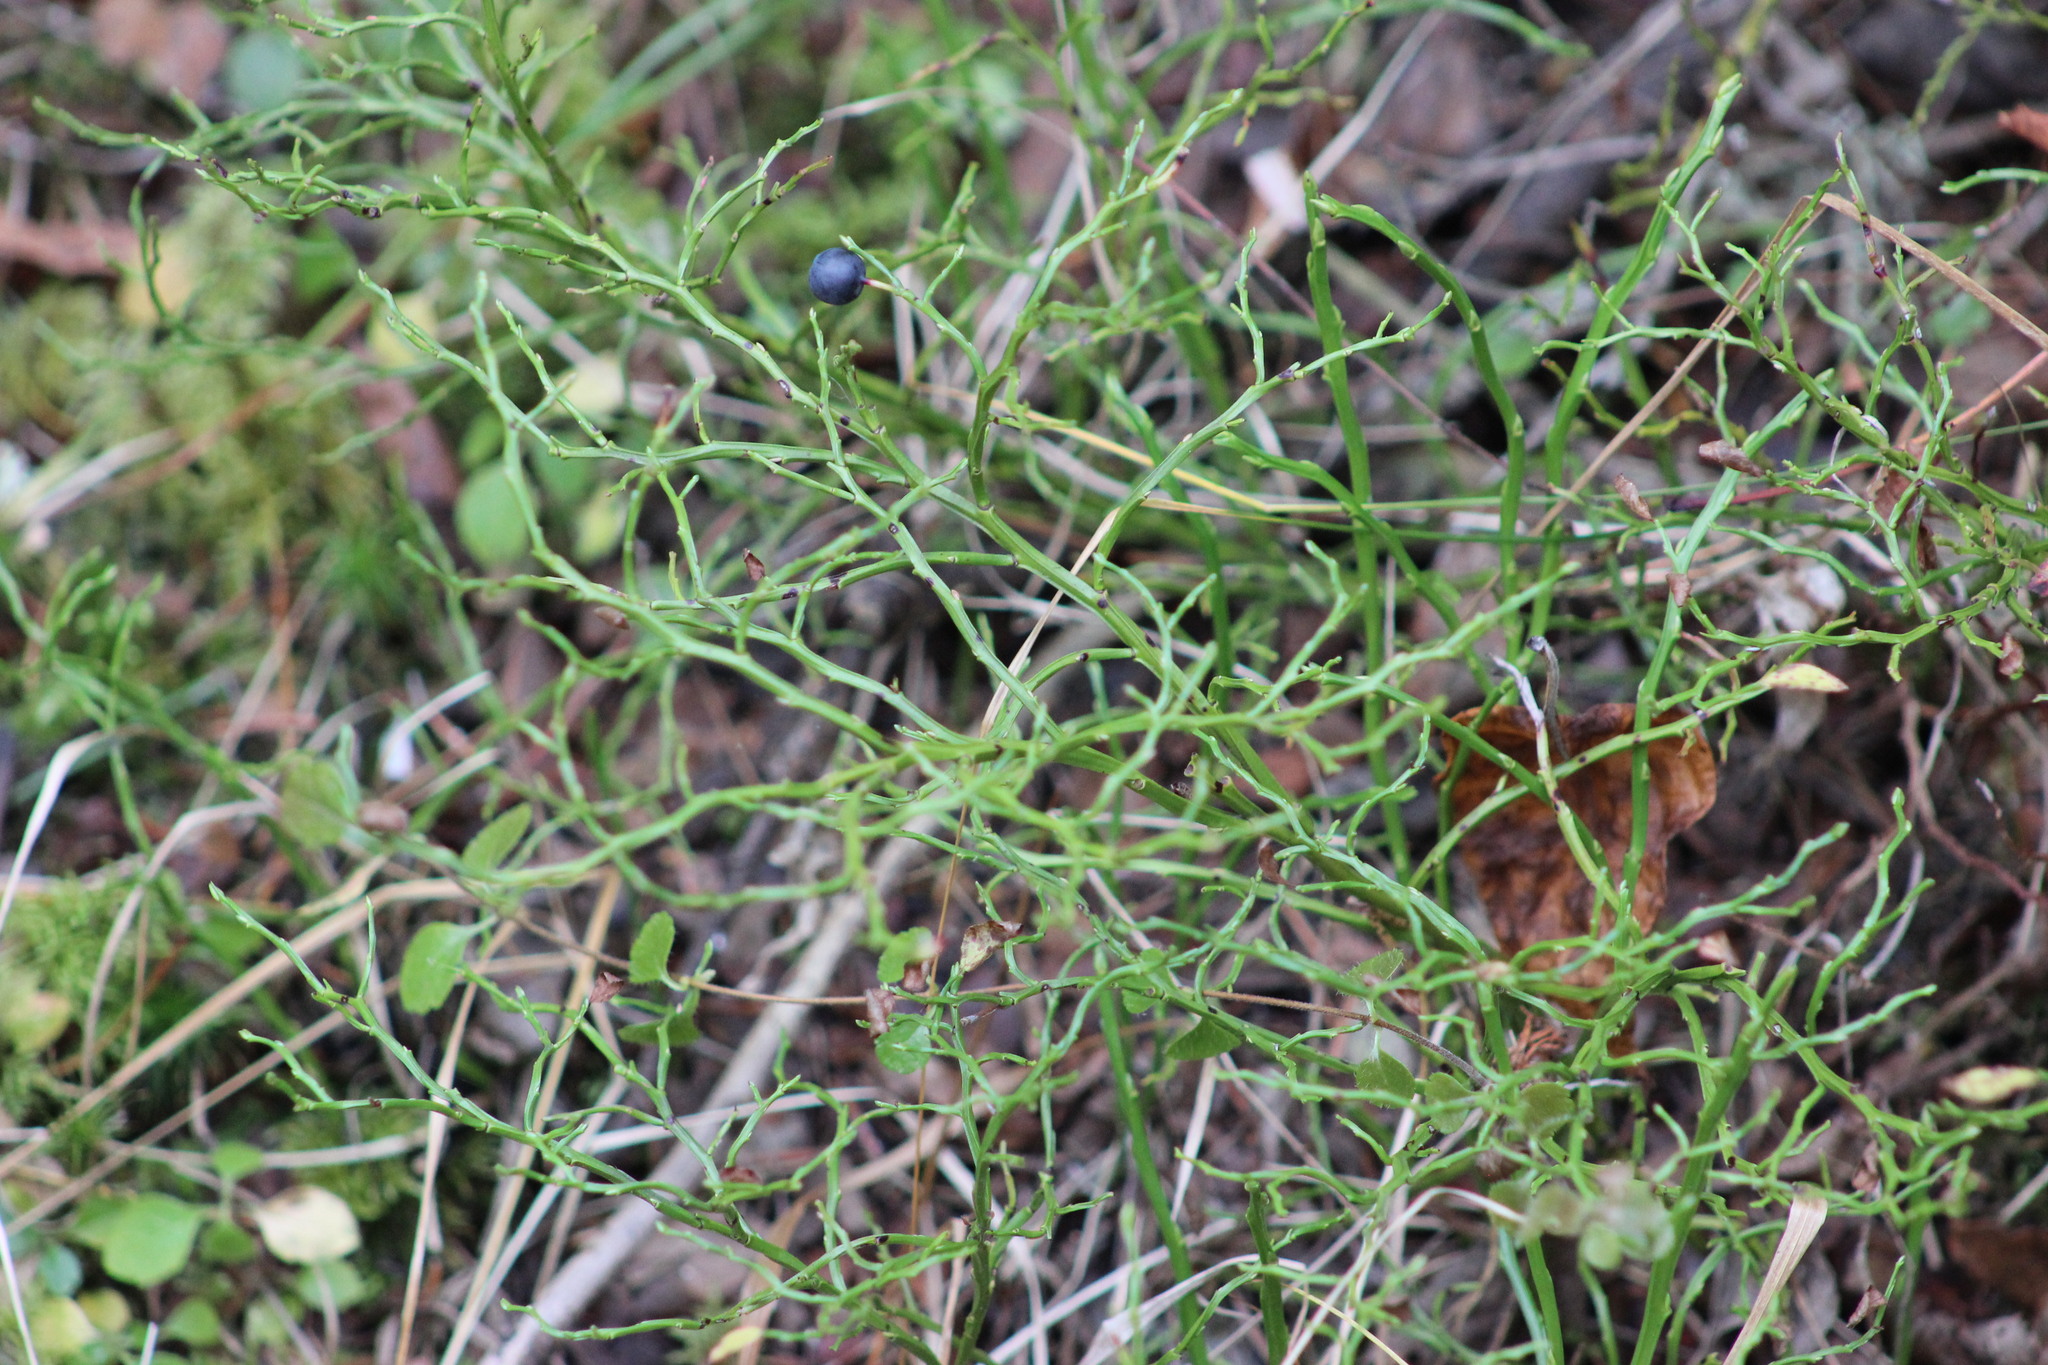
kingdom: Plantae
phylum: Tracheophyta
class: Magnoliopsida
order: Ericales
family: Ericaceae
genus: Vaccinium
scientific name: Vaccinium myrtillus
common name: Bilberry
